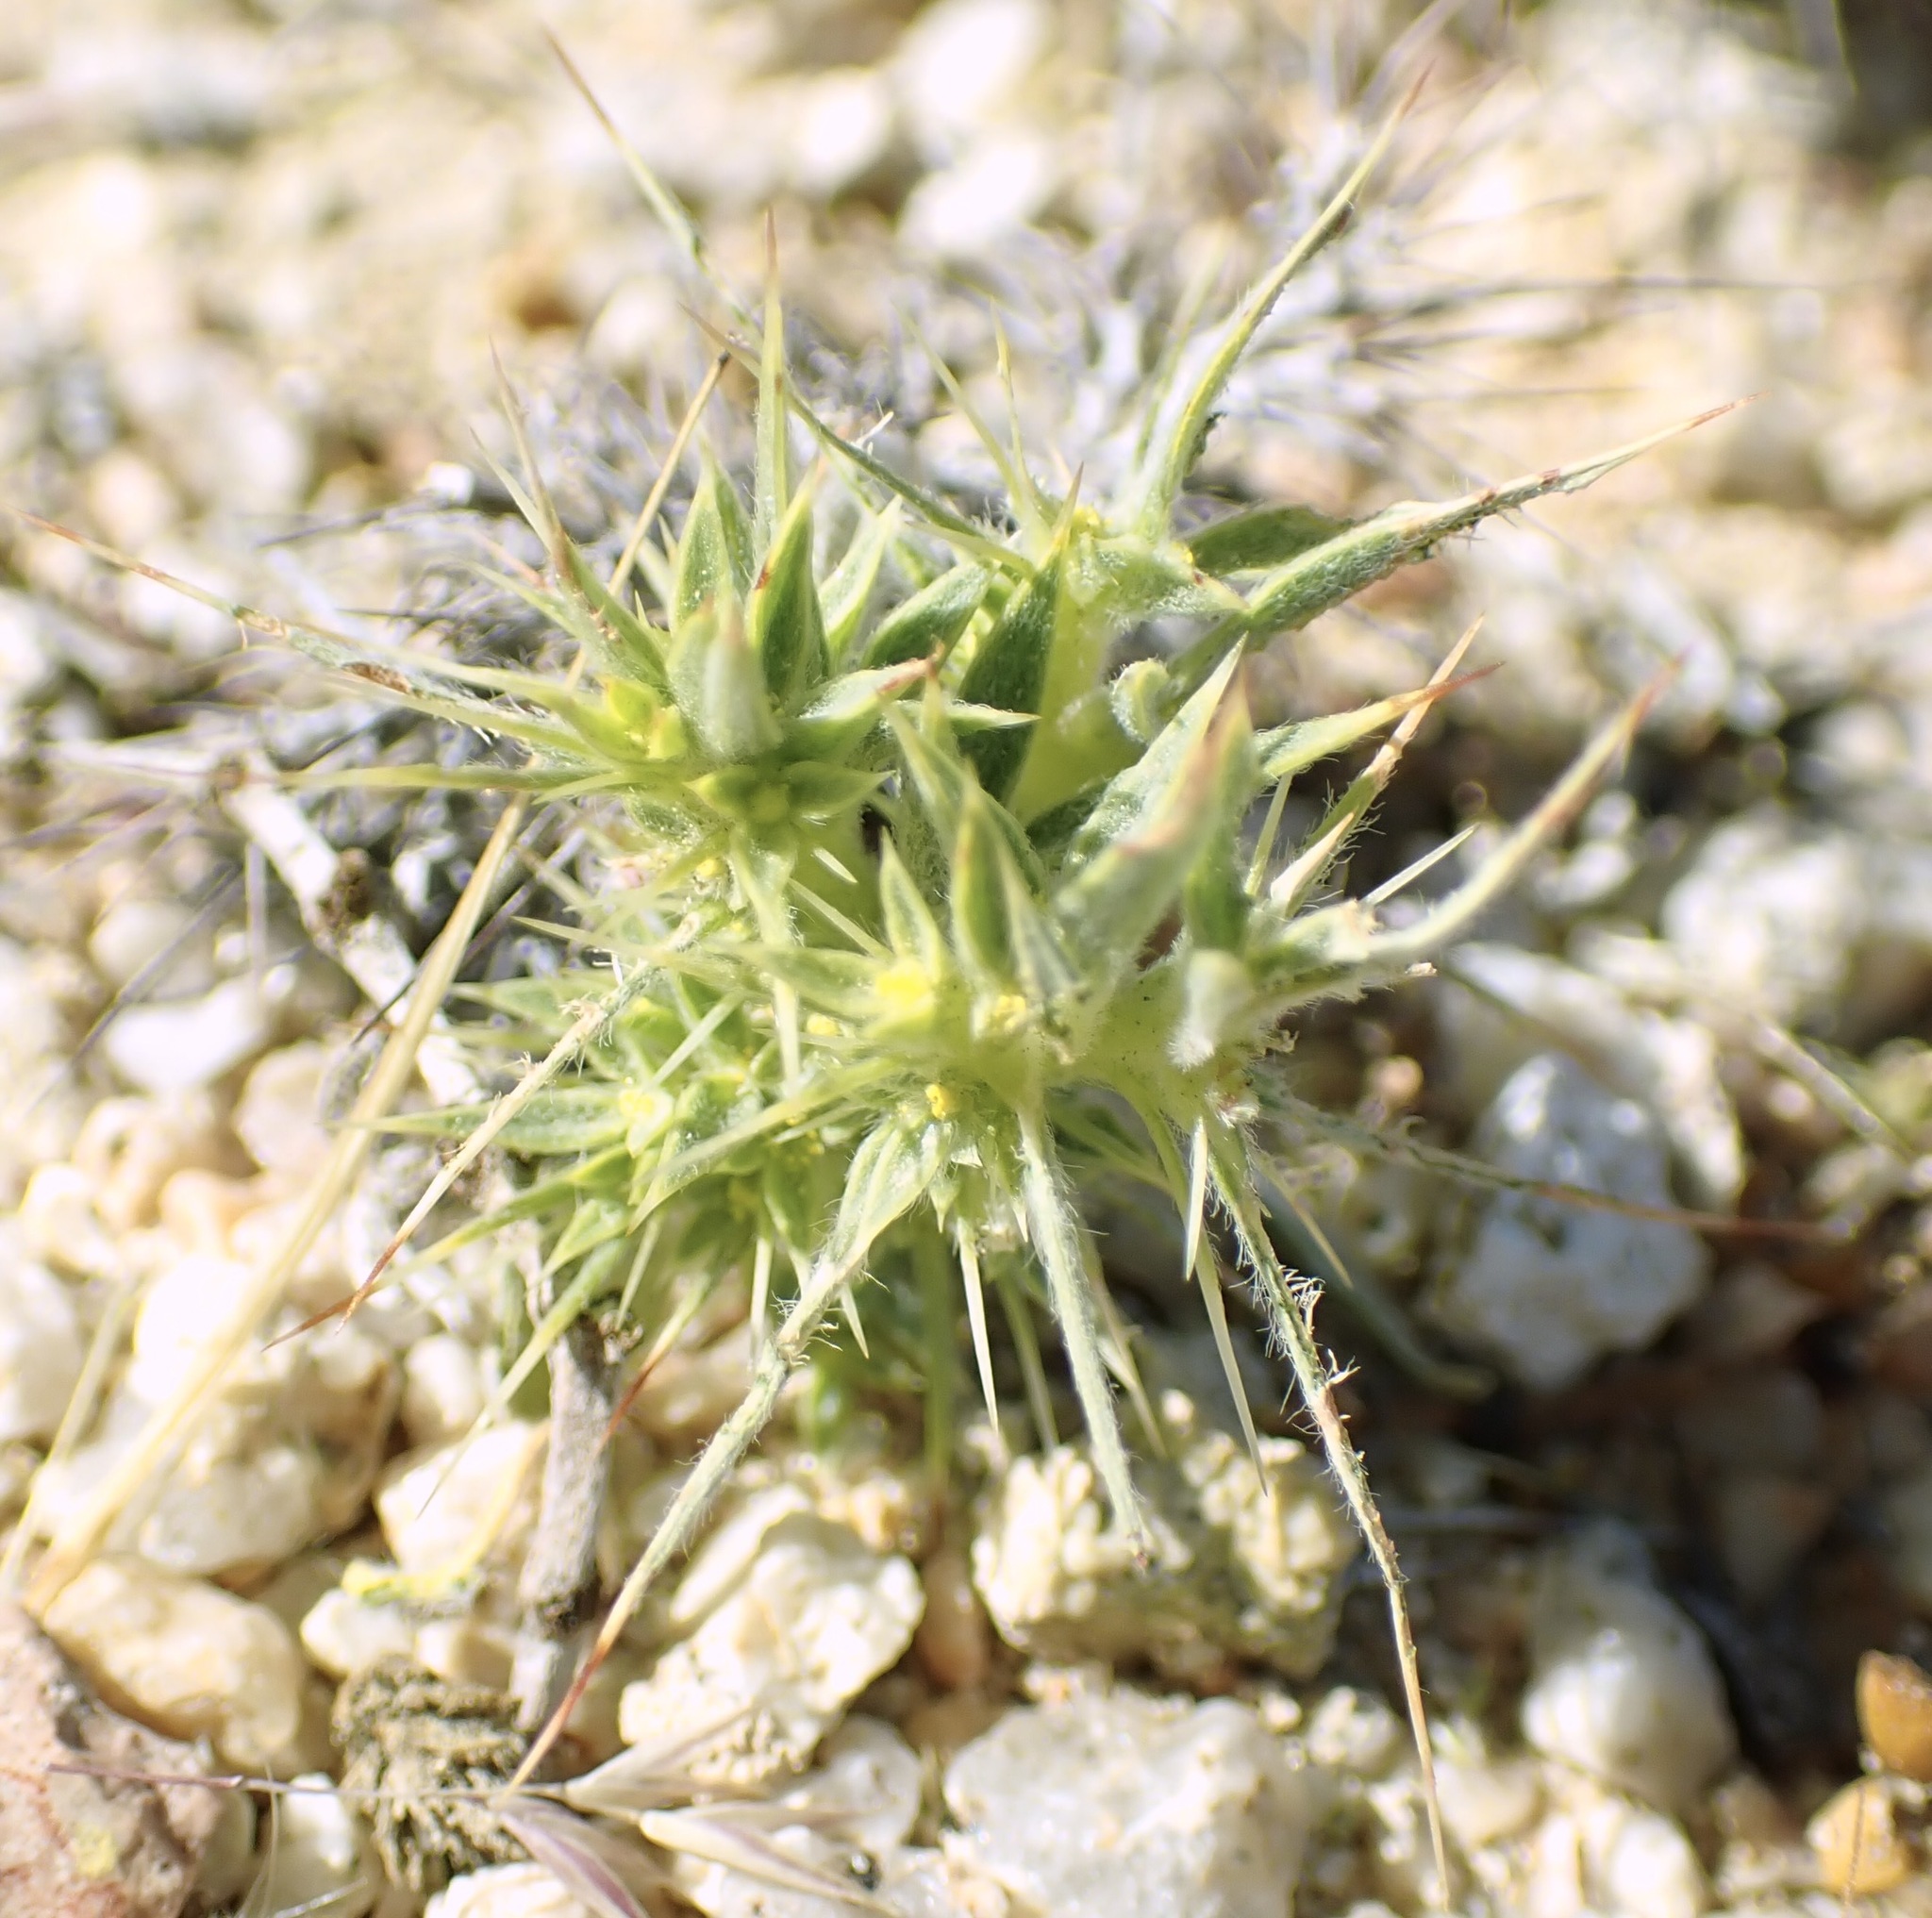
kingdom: Plantae
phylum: Tracheophyta
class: Magnoliopsida
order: Caryophyllales
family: Polygonaceae
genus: Chorizanthe
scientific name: Chorizanthe rigida
